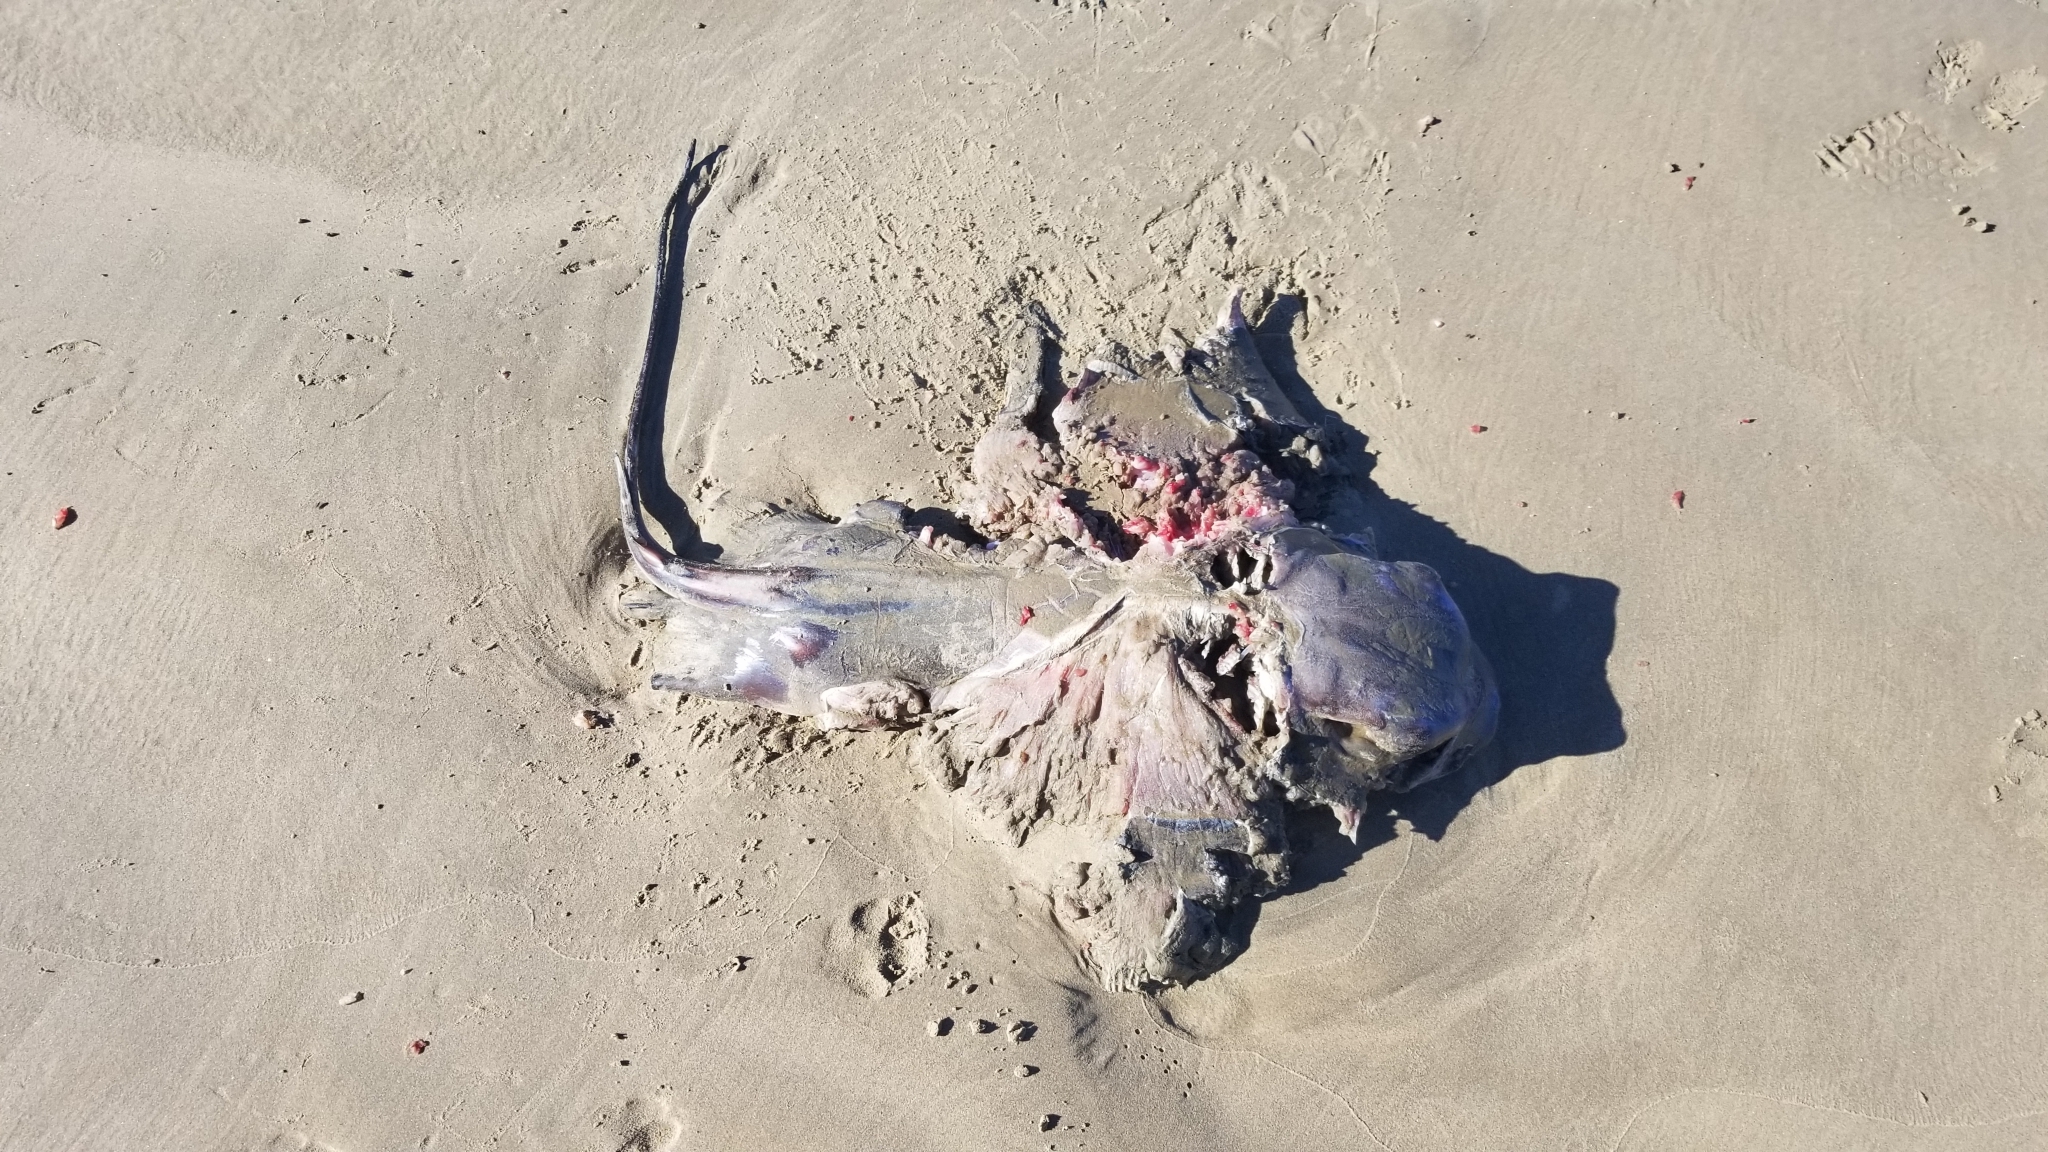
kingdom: Animalia
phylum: Chordata
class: Elasmobranchii
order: Myliobatiformes
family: Myliobatidae
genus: Myliobatis
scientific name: Myliobatis californica
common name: Bat ray
